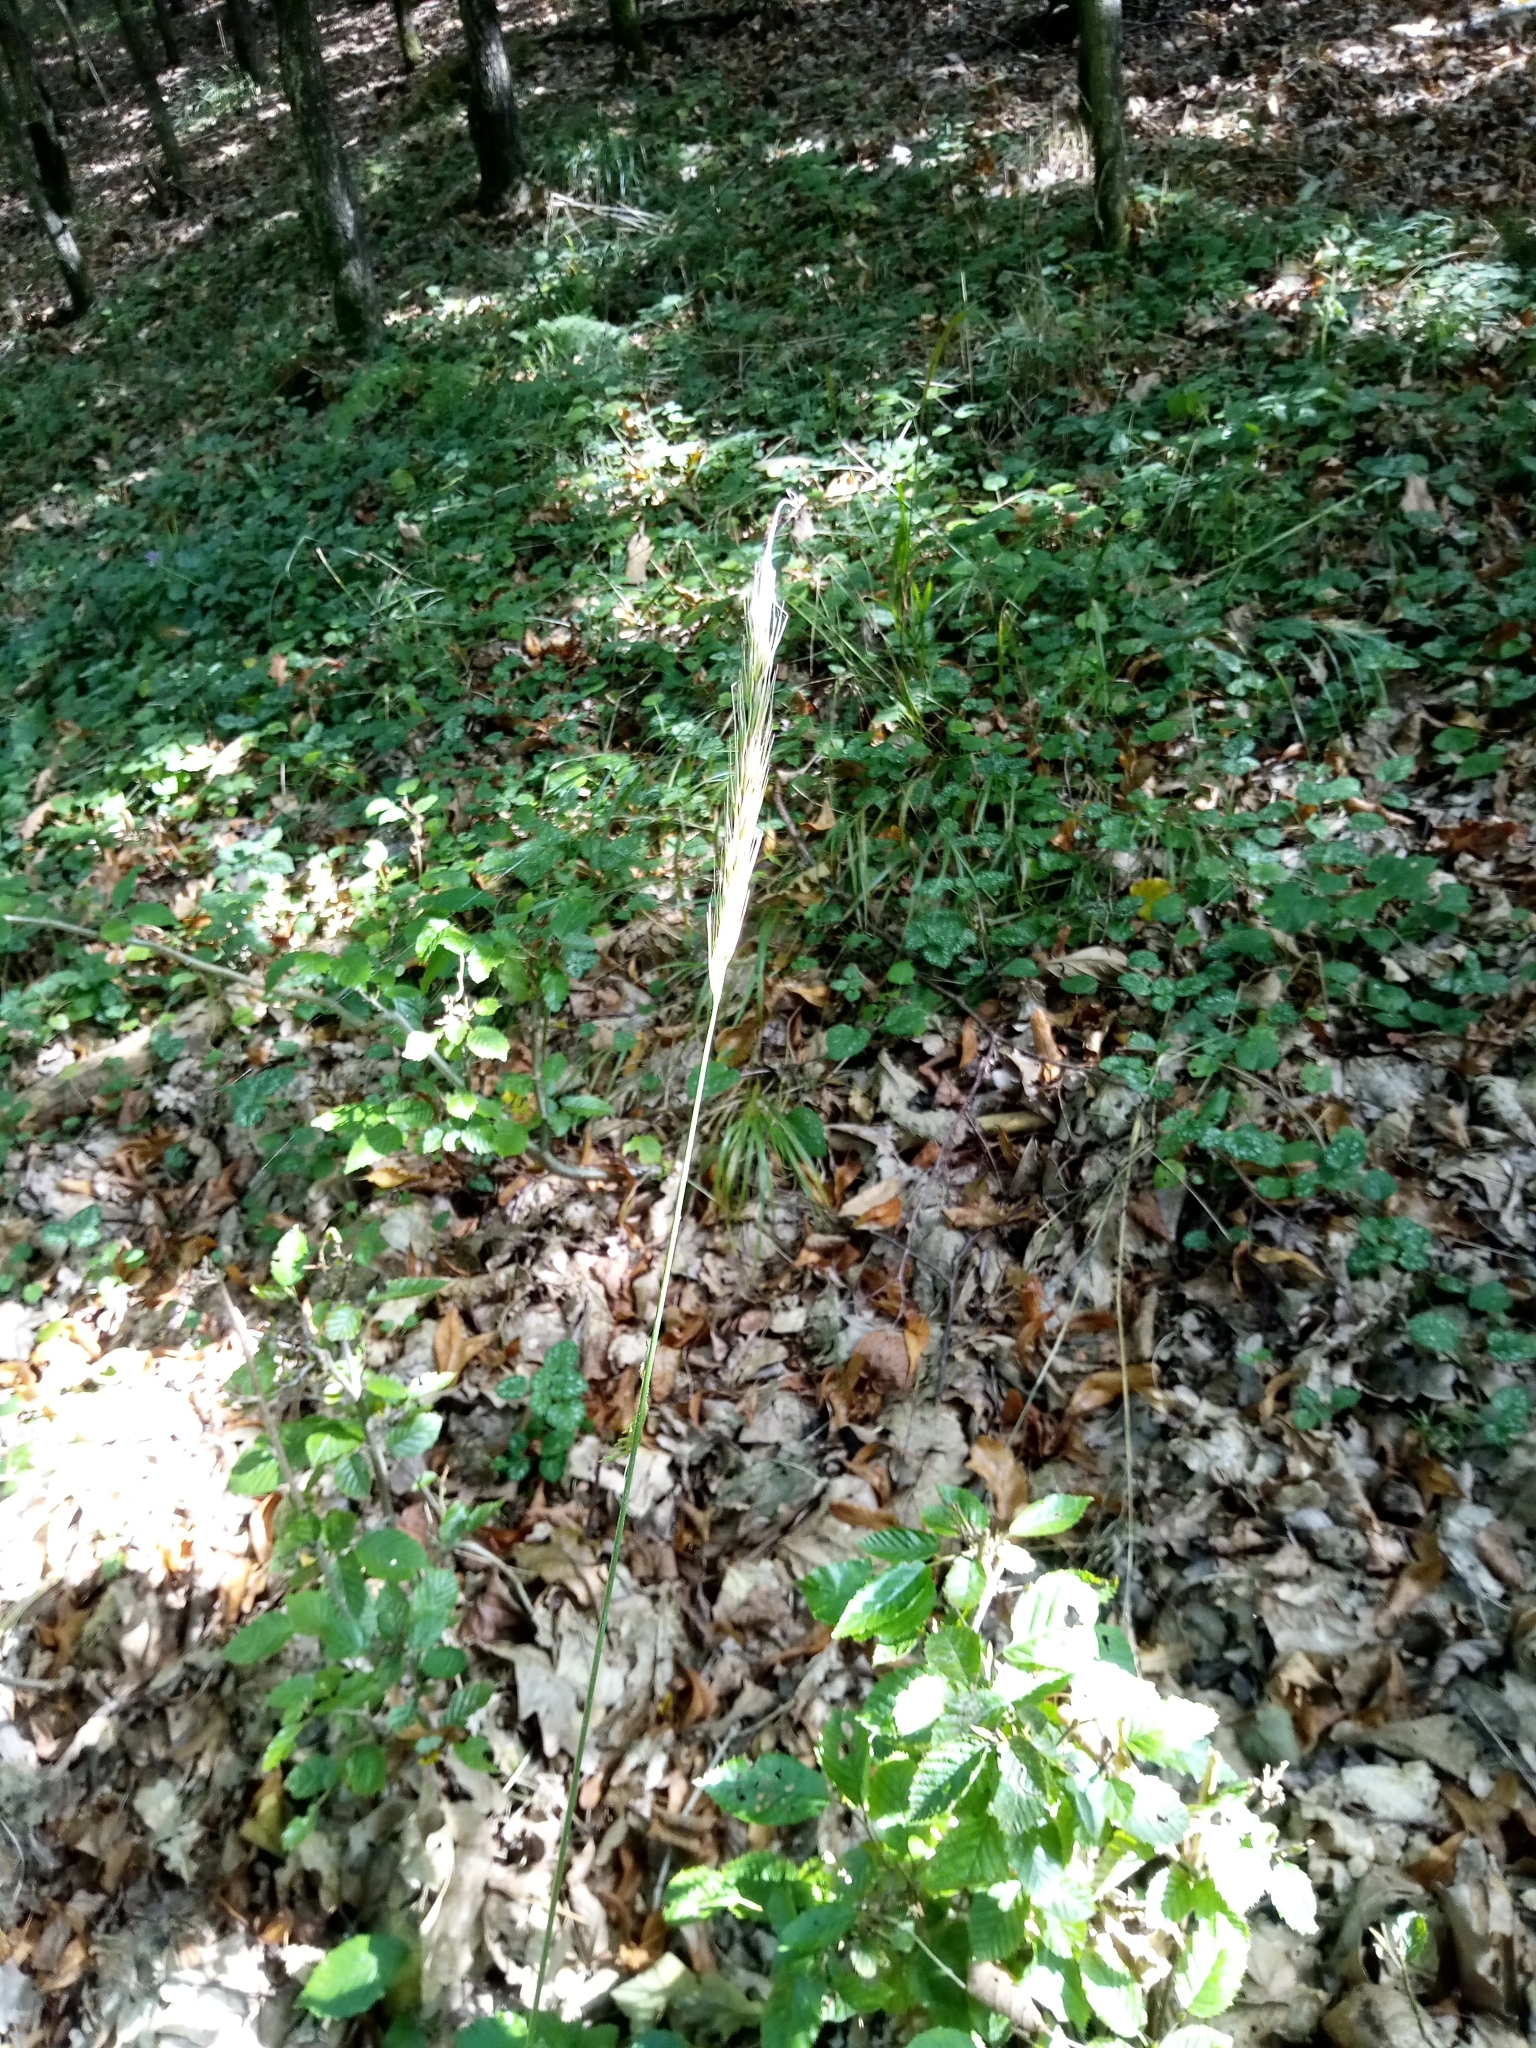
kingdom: Plantae
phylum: Tracheophyta
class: Liliopsida
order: Poales
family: Poaceae
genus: Hordelymus
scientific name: Hordelymus europaeus
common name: Wood-barley
